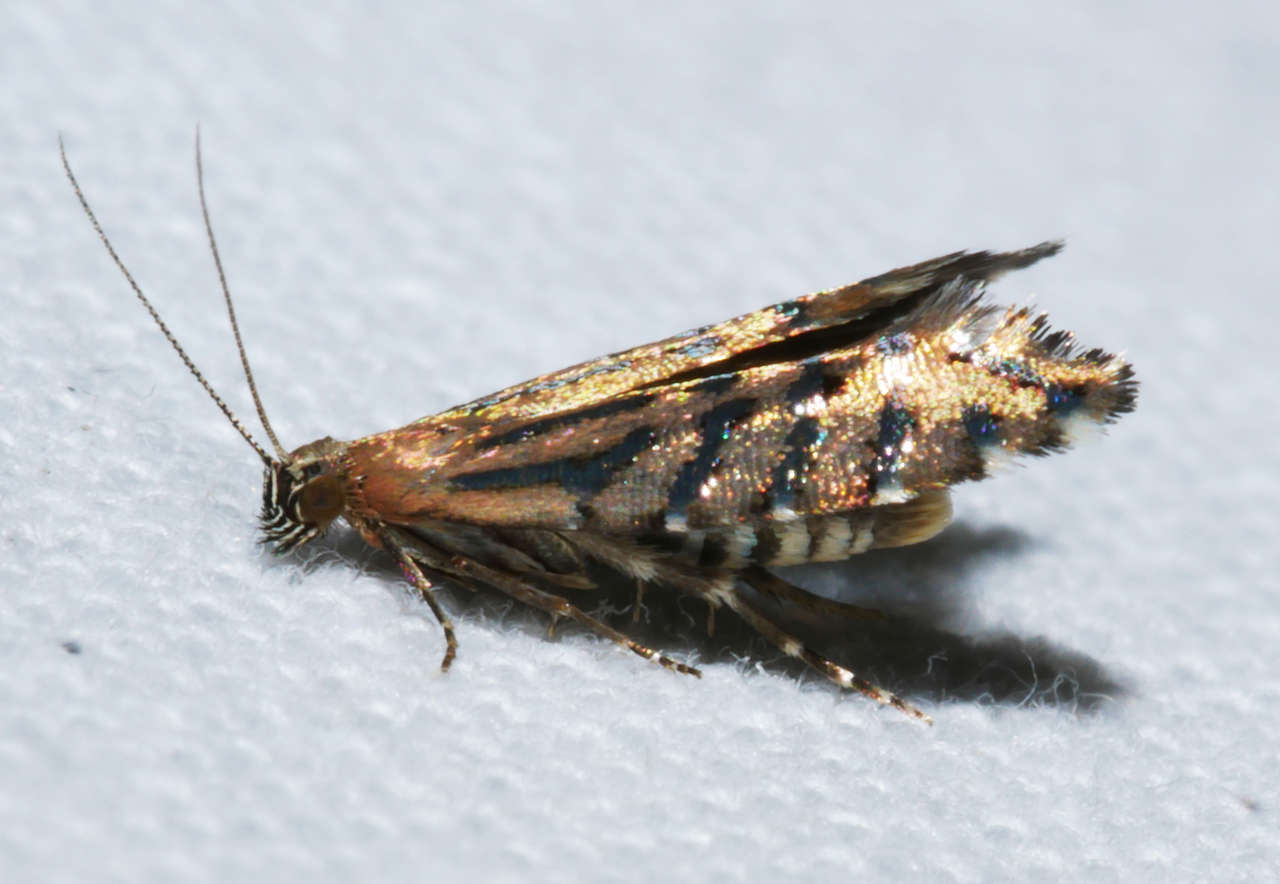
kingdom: Animalia
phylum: Arthropoda
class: Insecta
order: Lepidoptera
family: Glyphipterigidae
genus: Glyphipterix
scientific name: Glyphipterix perimetalla
